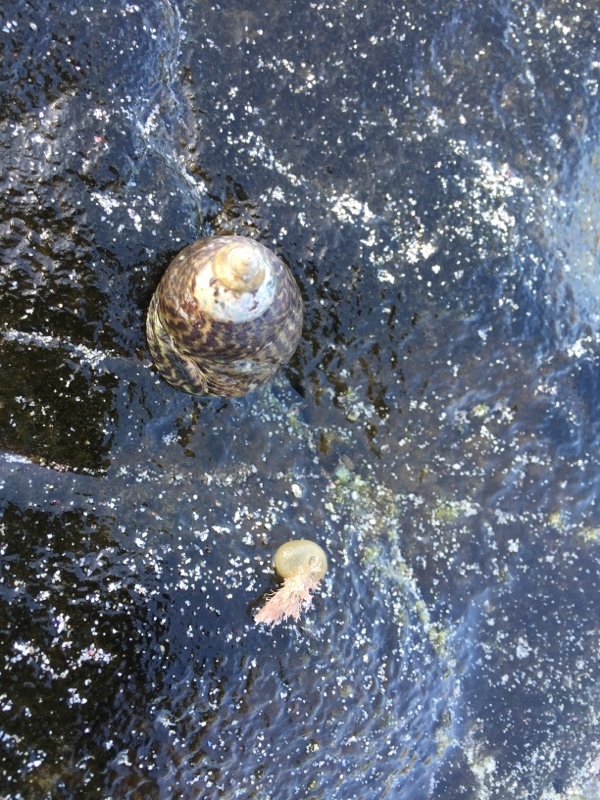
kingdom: Animalia
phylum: Mollusca
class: Gastropoda
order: Trochida
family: Trochidae
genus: Phorcus
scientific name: Phorcus sauciatus
